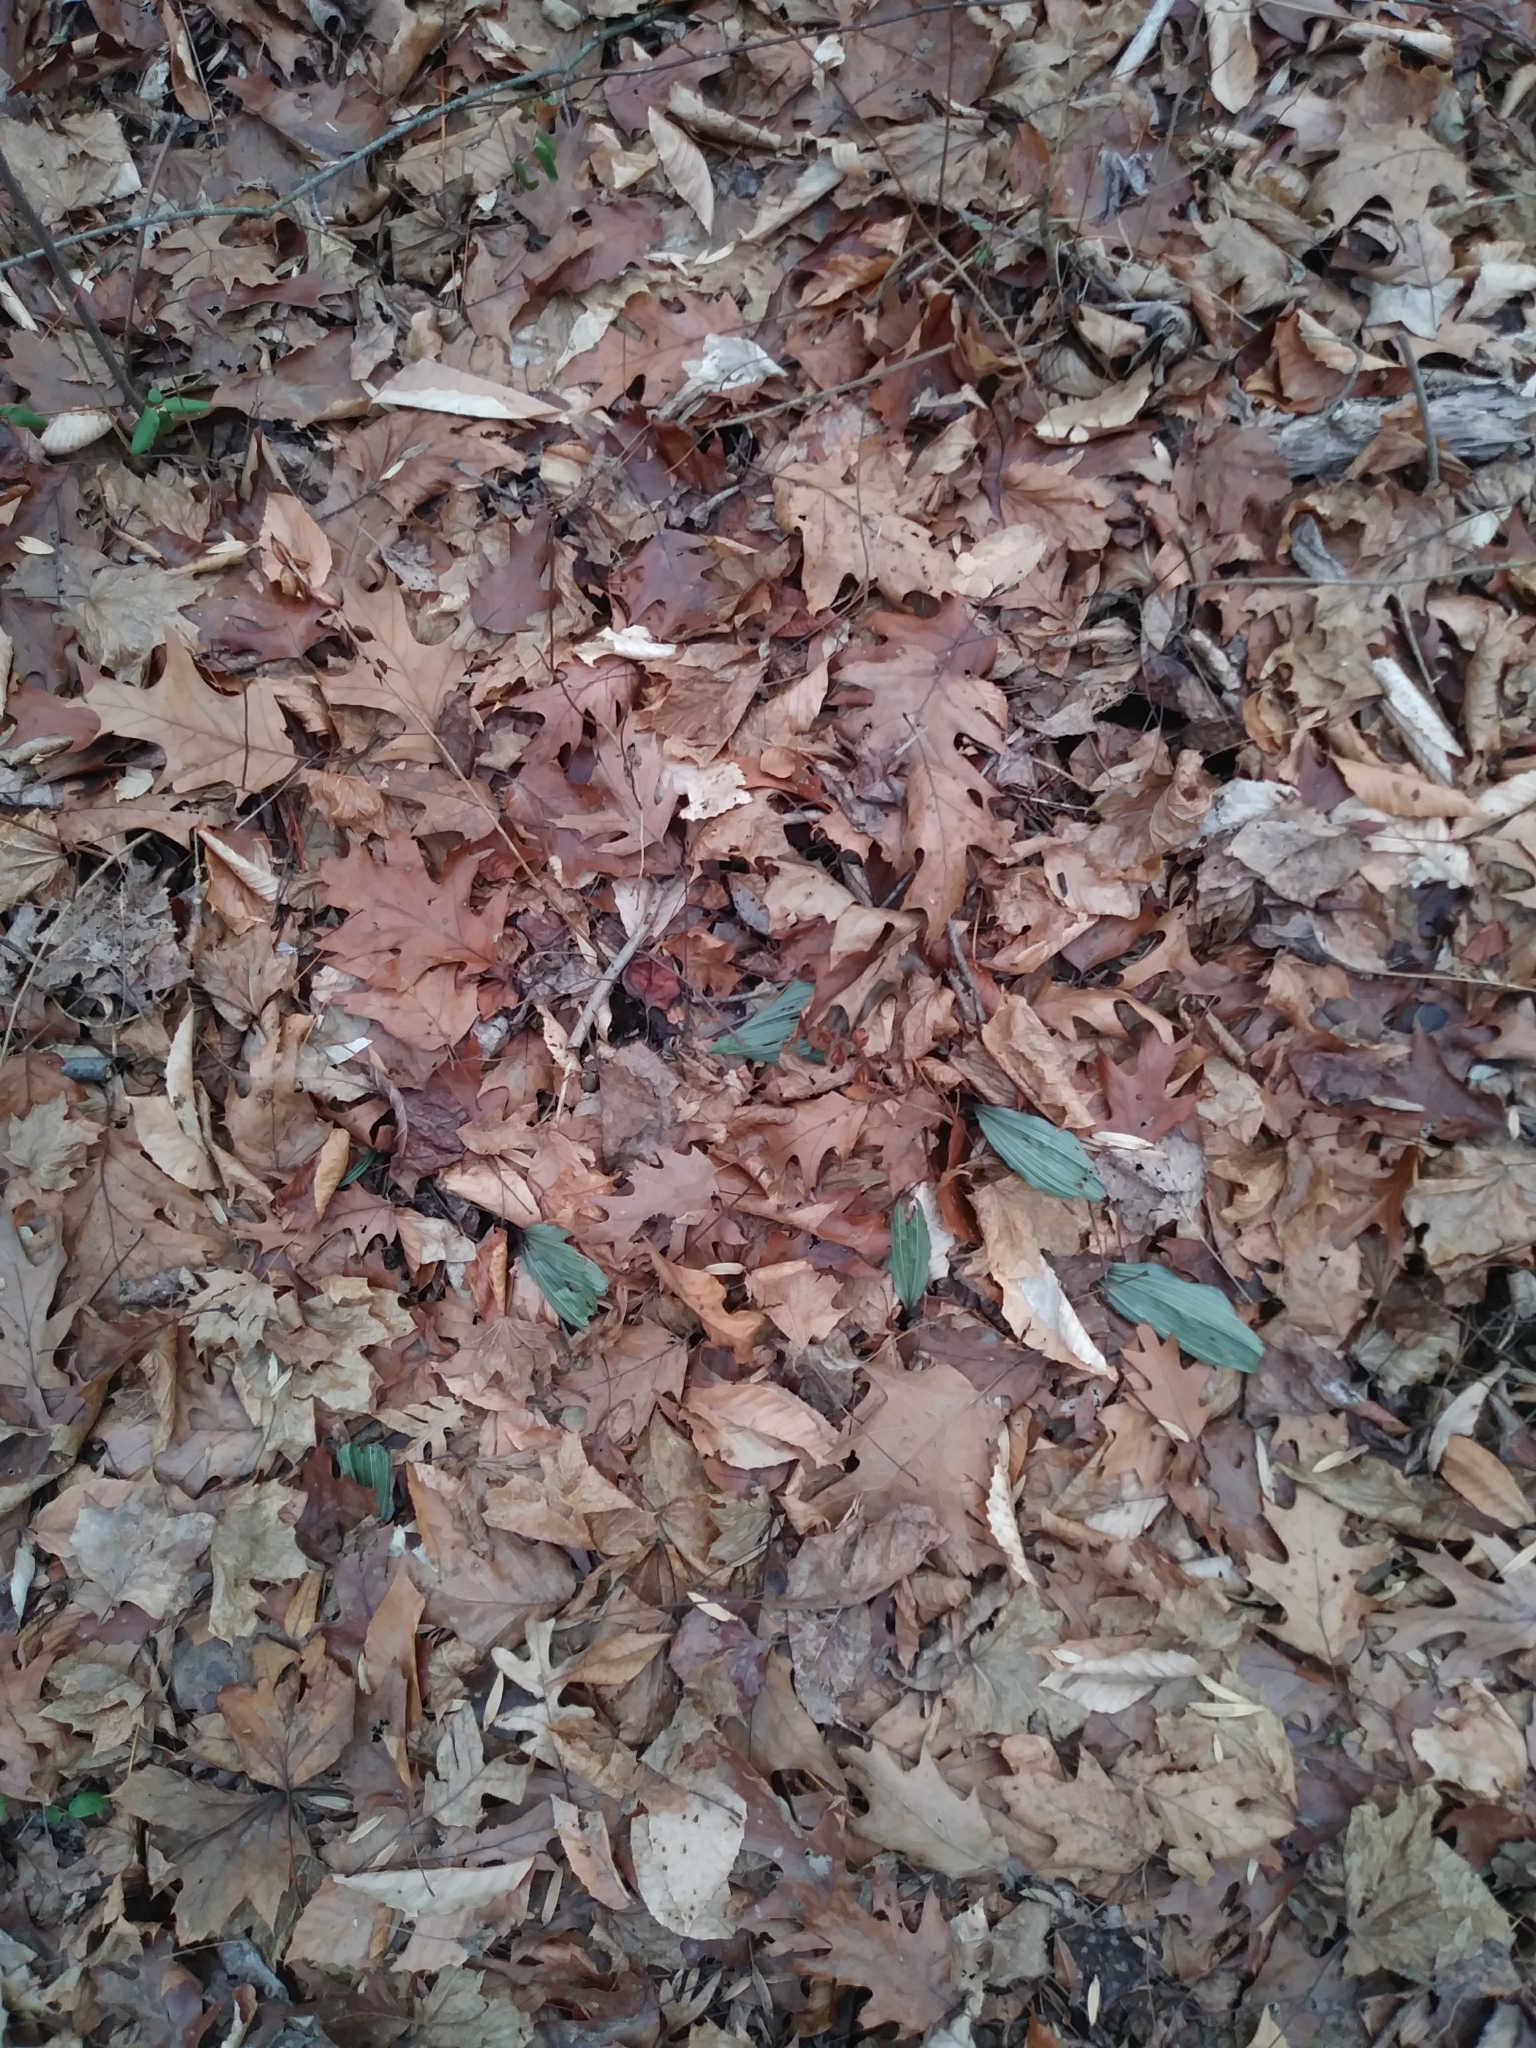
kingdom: Plantae
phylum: Tracheophyta
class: Liliopsida
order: Asparagales
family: Orchidaceae
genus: Aplectrum
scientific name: Aplectrum hyemale
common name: Adam-and-eve
